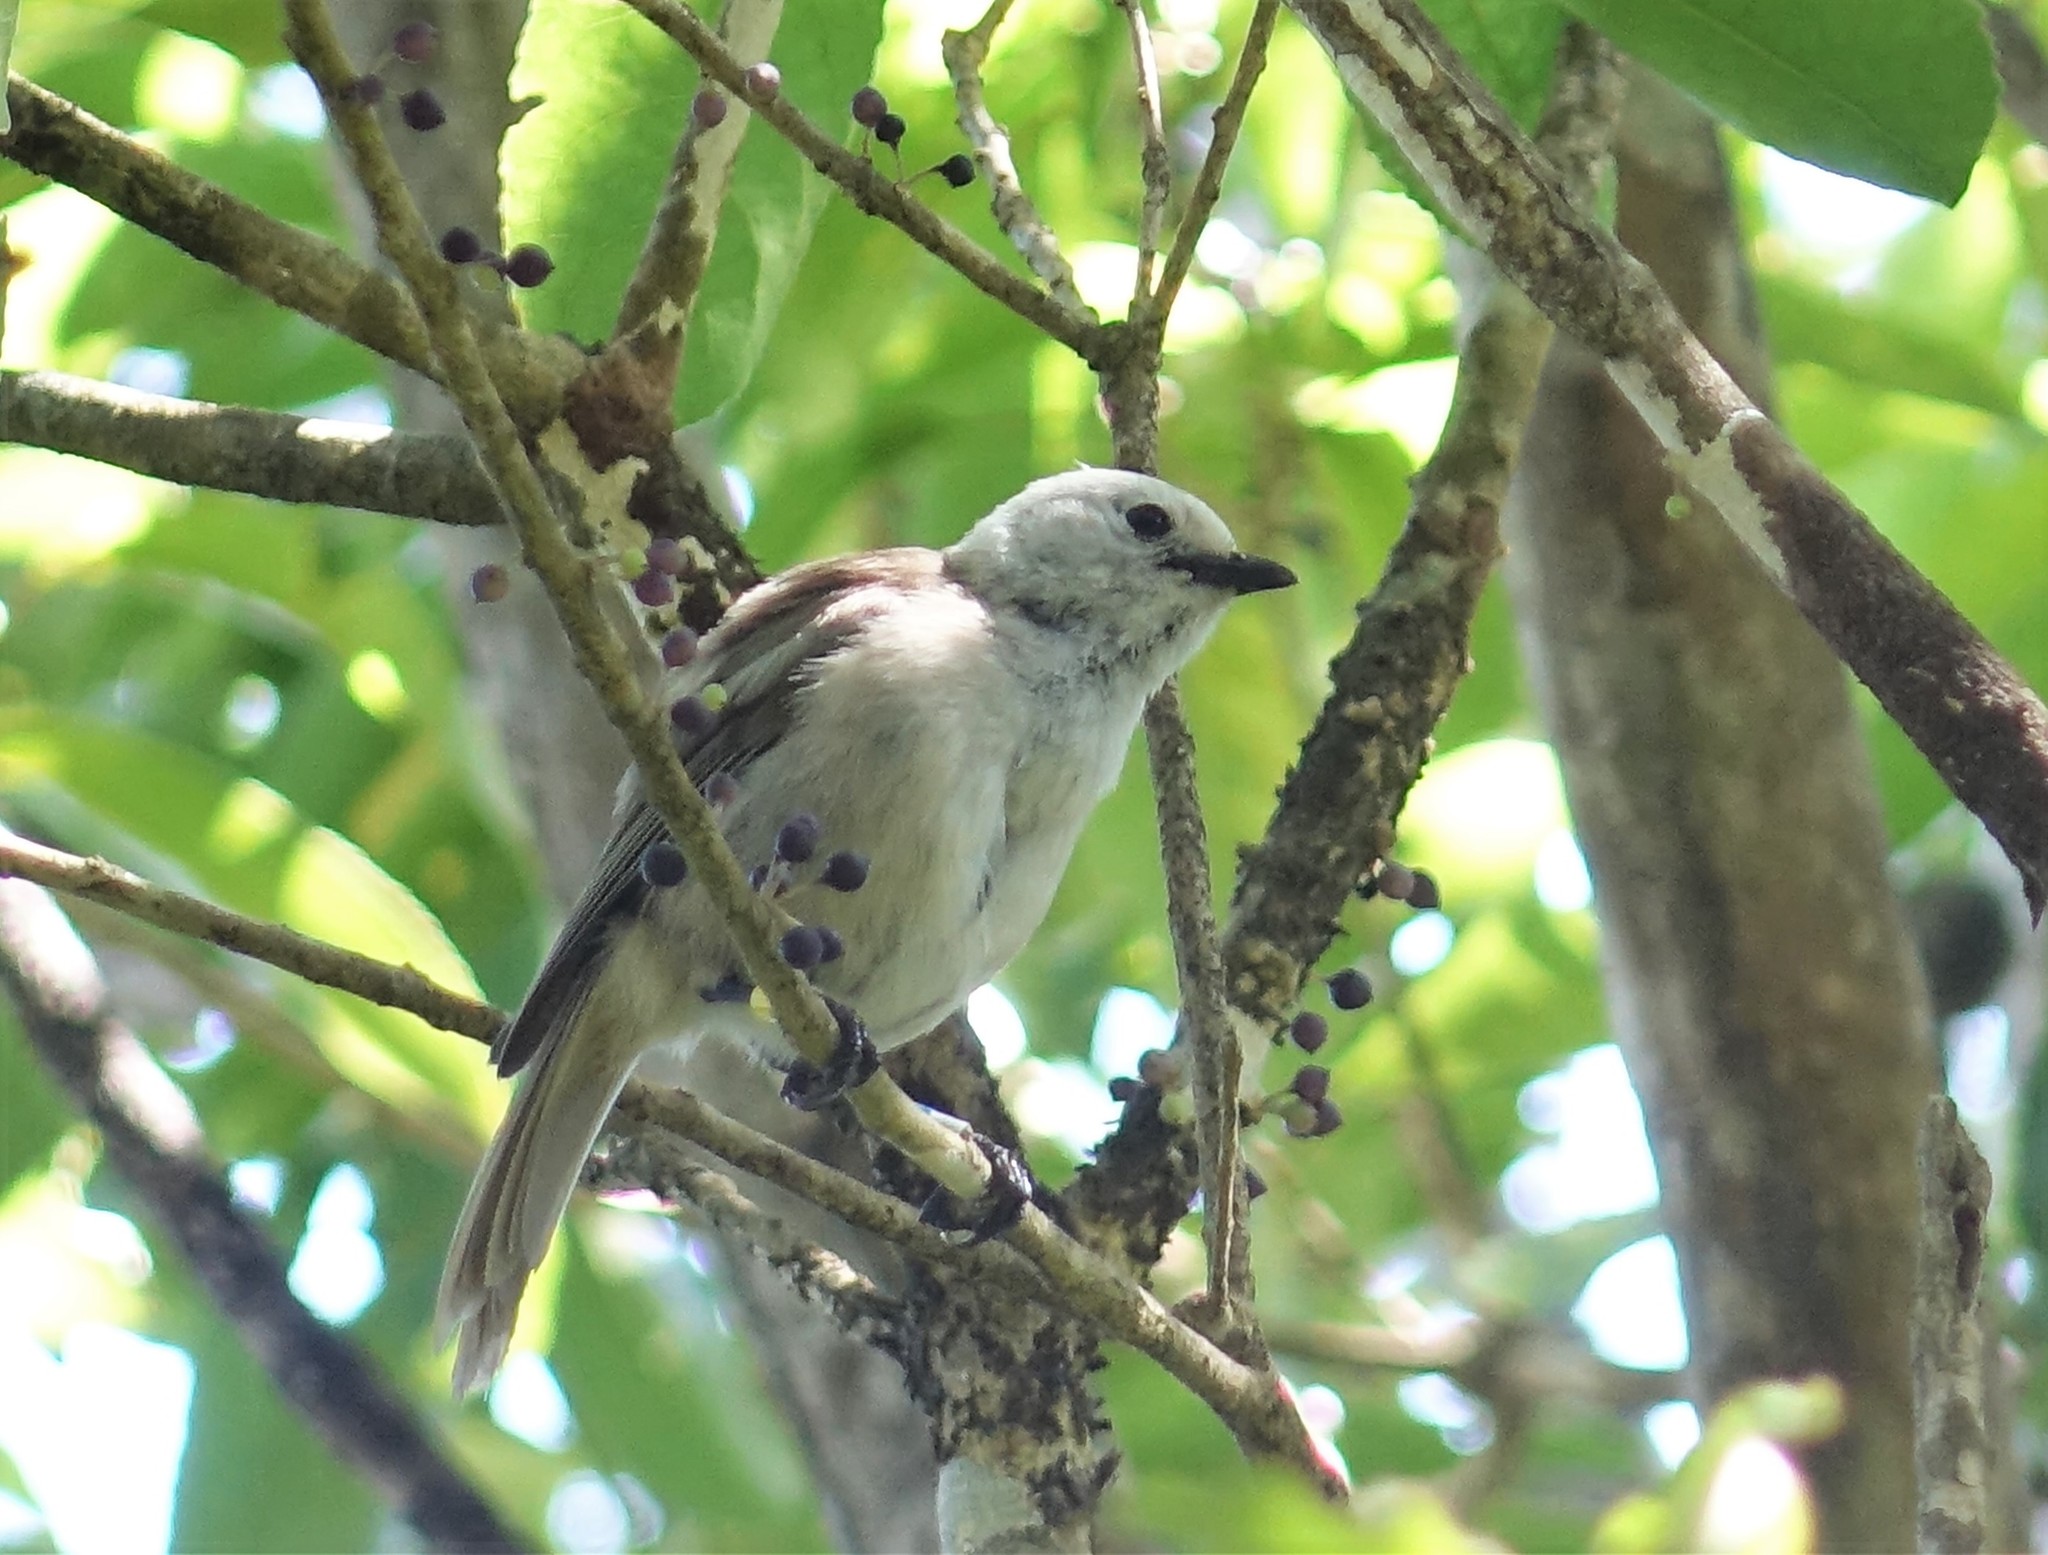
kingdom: Animalia
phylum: Chordata
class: Aves
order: Passeriformes
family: Acanthizidae
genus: Mohoua
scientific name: Mohoua albicilla
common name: Whitehead
